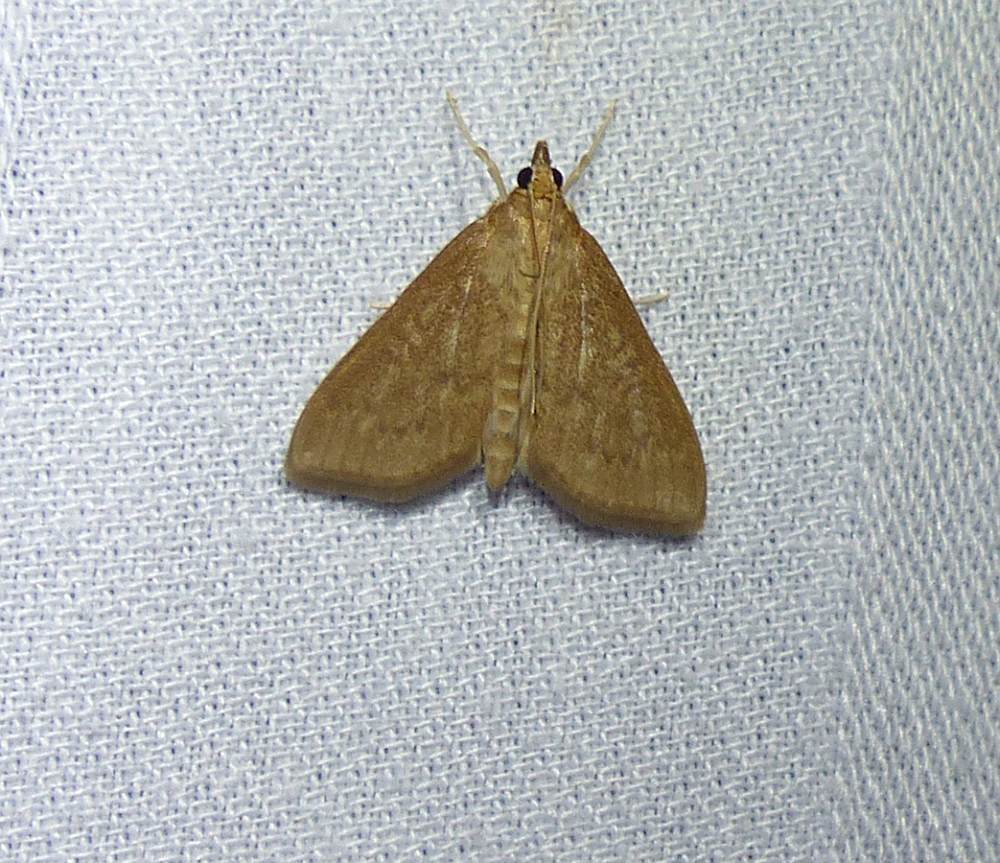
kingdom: Animalia
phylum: Arthropoda
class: Insecta
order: Lepidoptera
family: Crambidae
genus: Anania
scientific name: Anania Framinghamia helvalis
